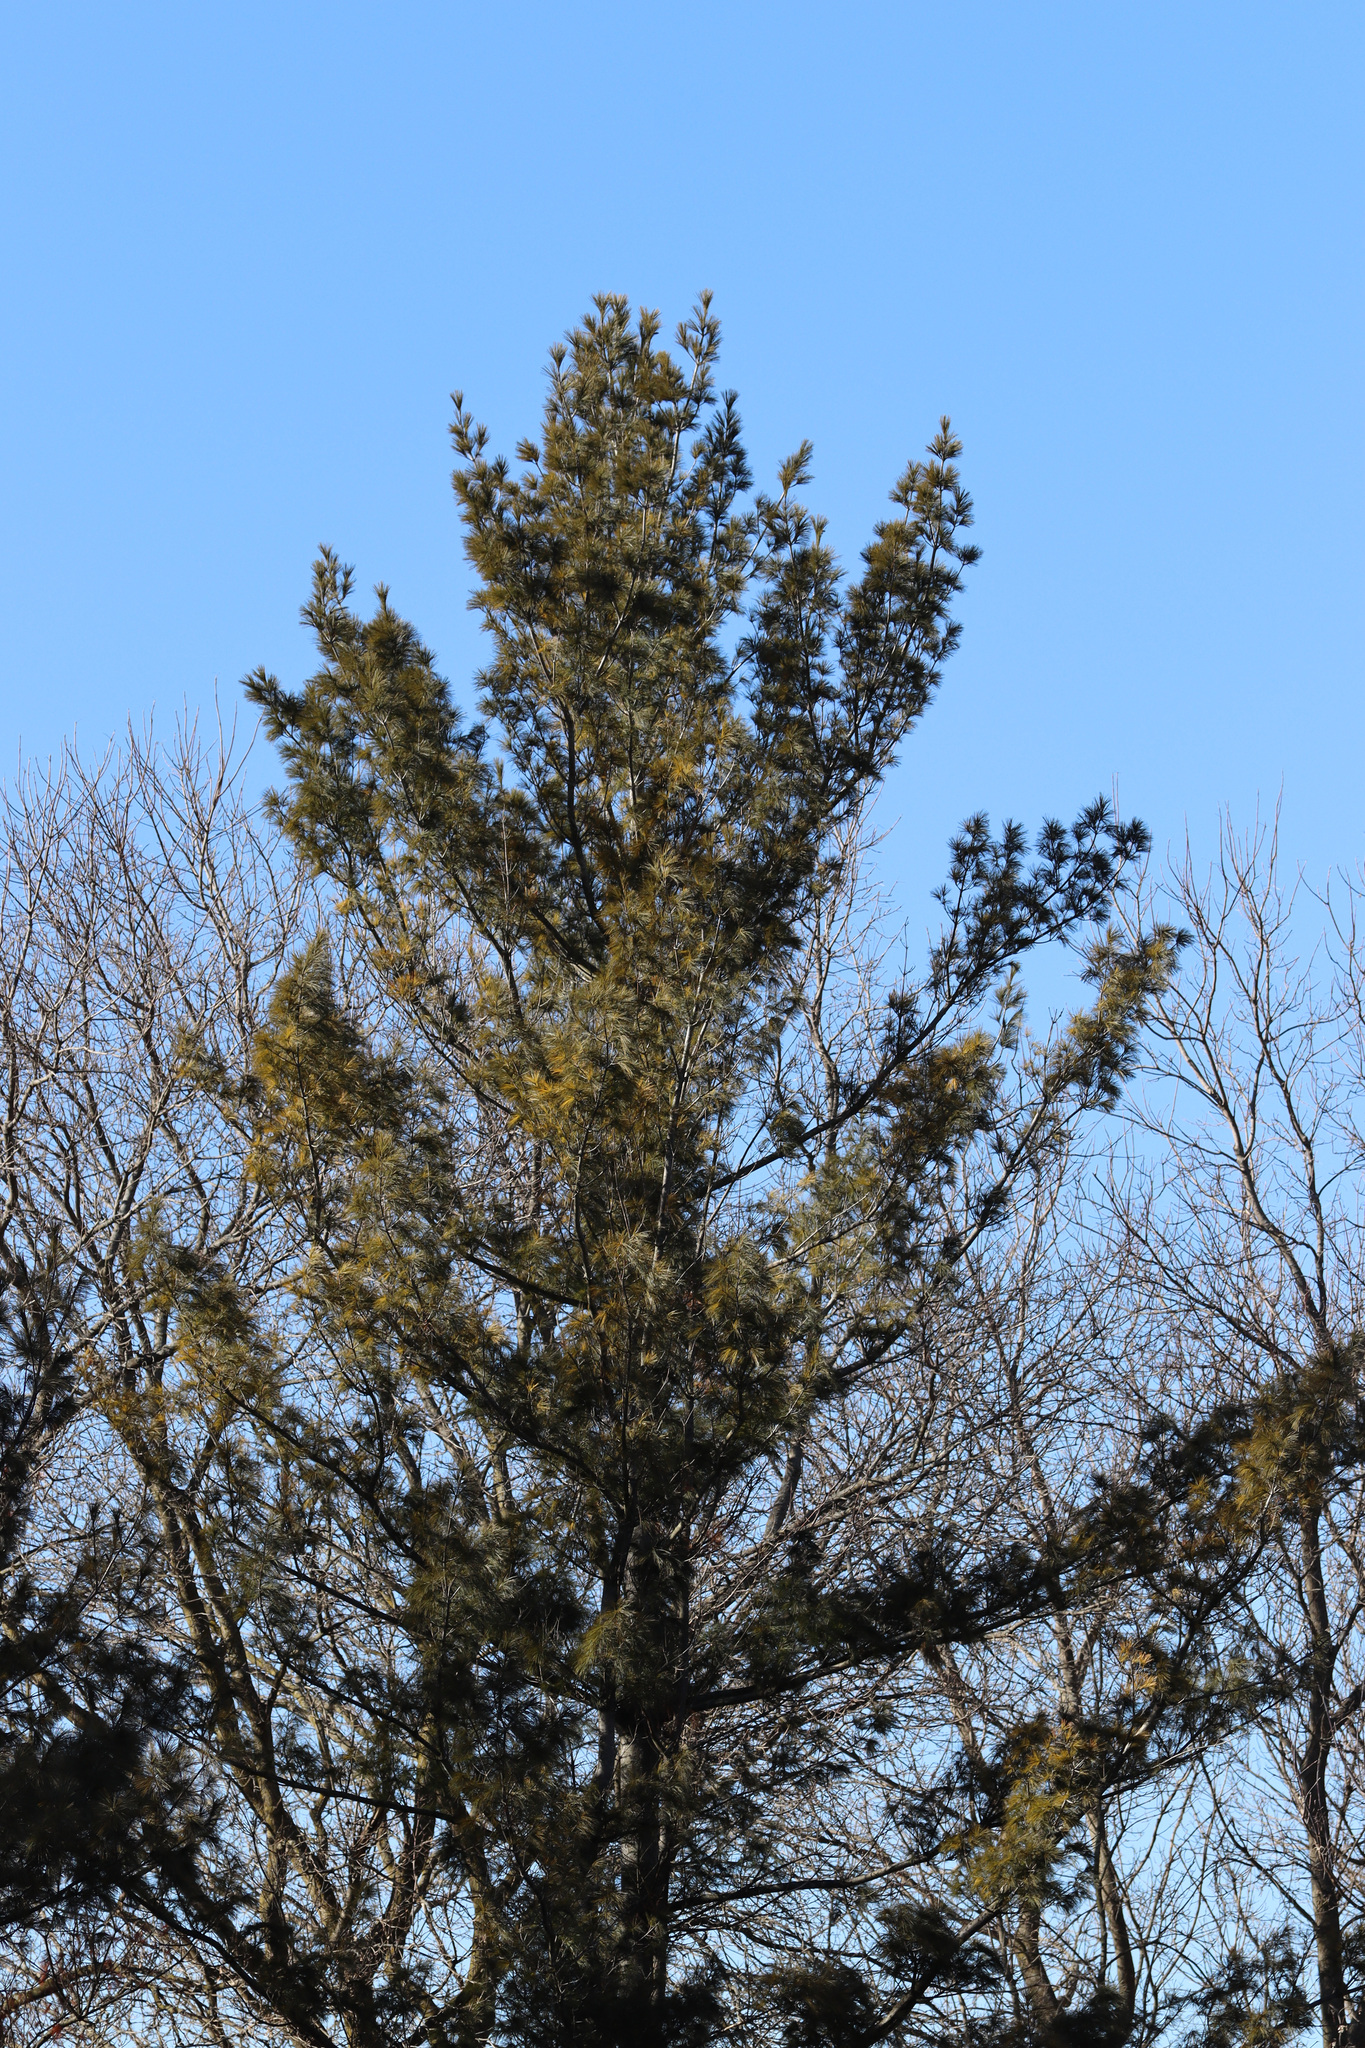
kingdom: Plantae
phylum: Tracheophyta
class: Pinopsida
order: Pinales
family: Pinaceae
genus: Pinus
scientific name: Pinus strobus
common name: Weymouth pine
